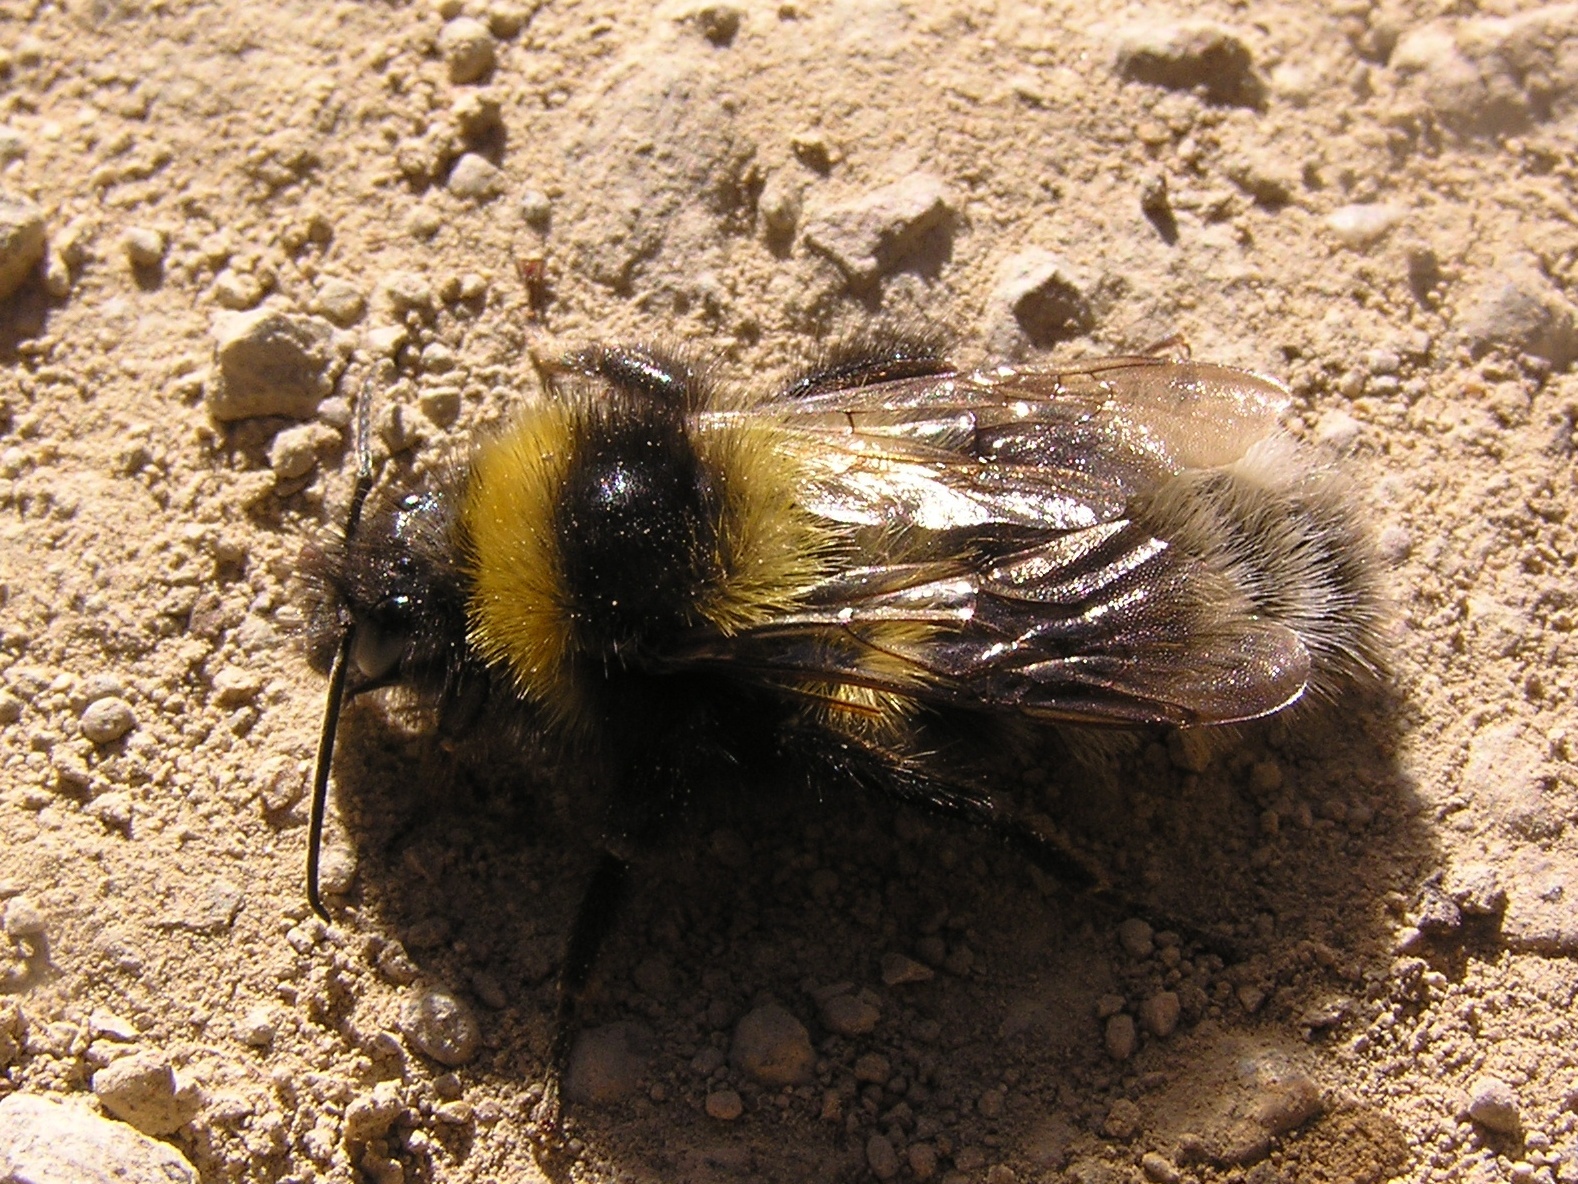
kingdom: Animalia
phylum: Arthropoda
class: Insecta
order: Hymenoptera
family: Apidae
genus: Bombus
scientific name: Bombus ruderatus
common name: Large garden bumblebee
